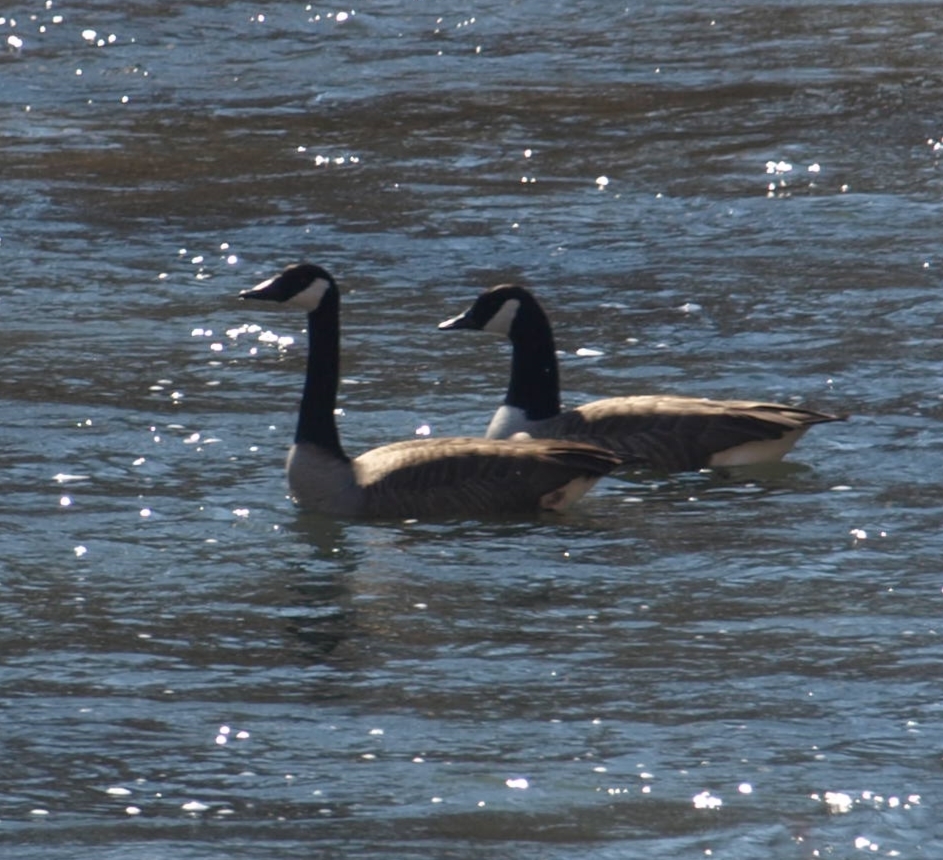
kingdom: Animalia
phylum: Chordata
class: Aves
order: Anseriformes
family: Anatidae
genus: Branta
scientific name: Branta canadensis
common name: Canada goose
